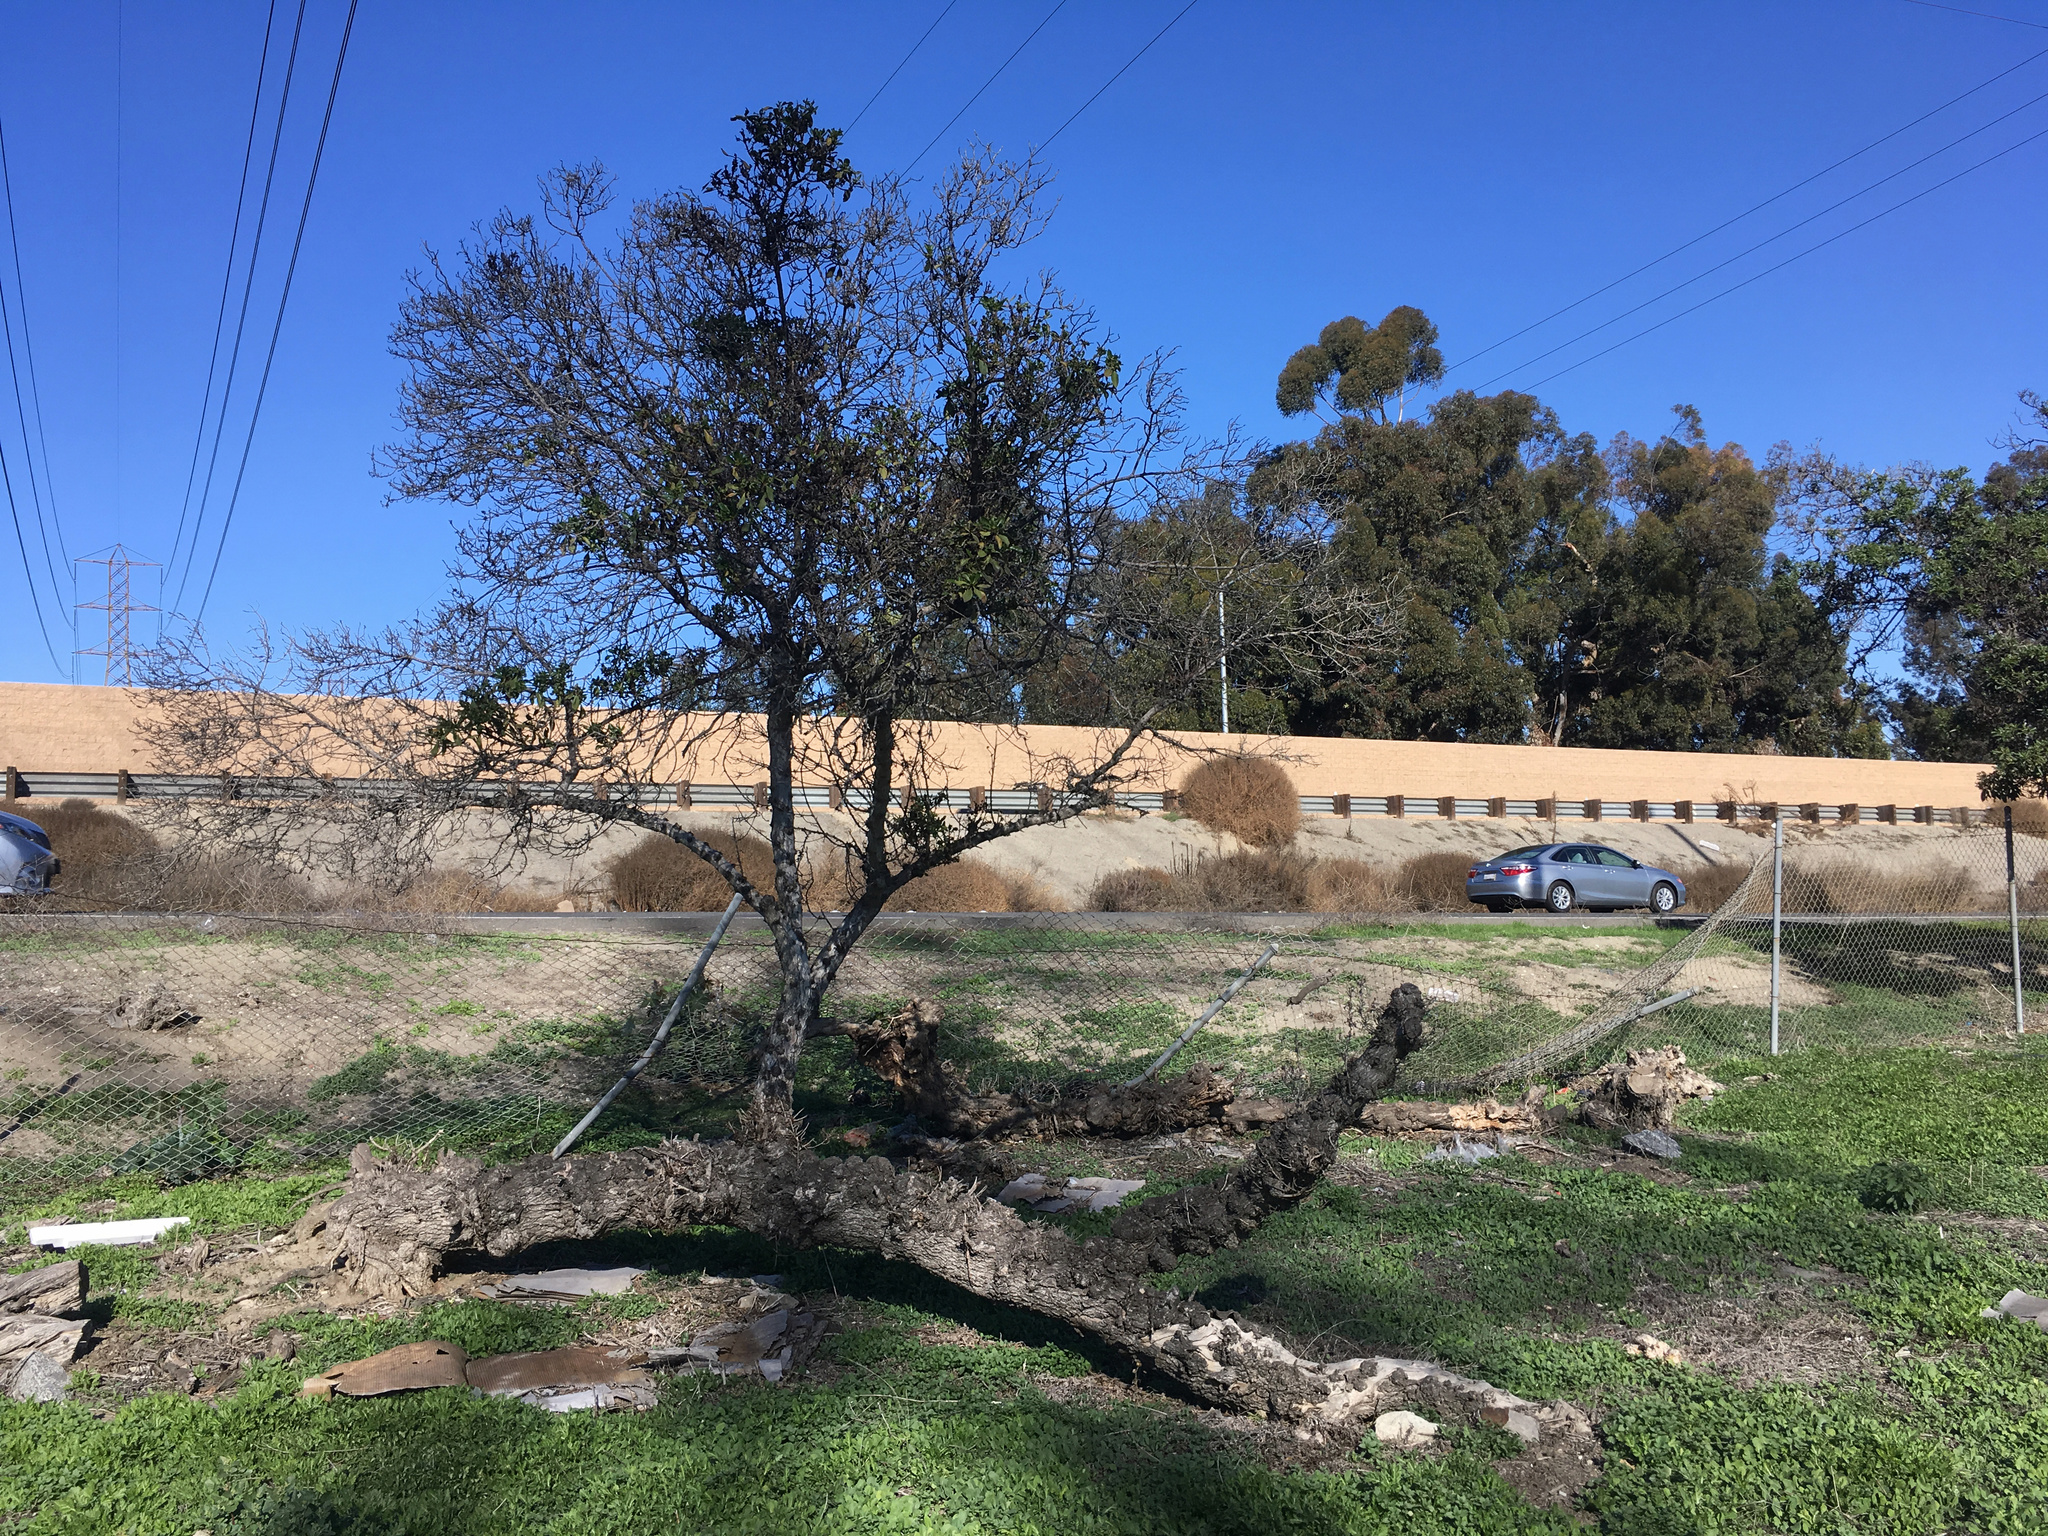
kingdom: Plantae
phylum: Tracheophyta
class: Magnoliopsida
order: Lamiales
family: Scrophulariaceae
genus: Myoporum
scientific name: Myoporum laetum
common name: Ngaio tree
